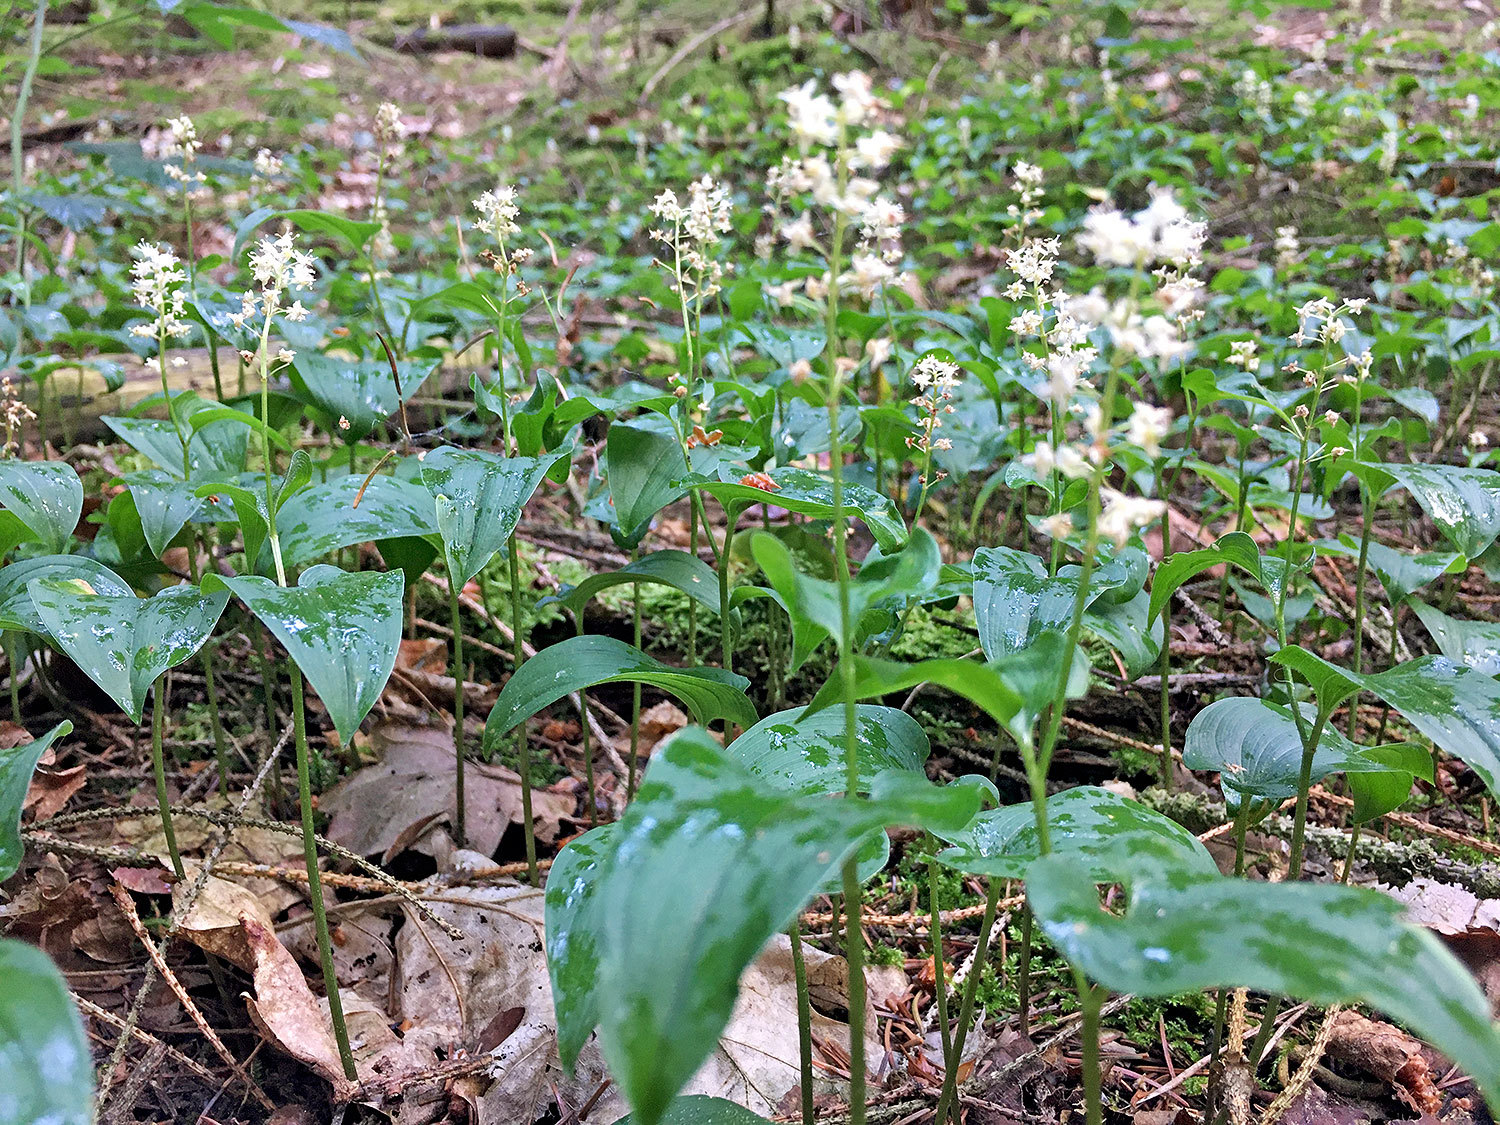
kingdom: Plantae
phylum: Tracheophyta
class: Liliopsida
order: Asparagales
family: Asparagaceae
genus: Maianthemum
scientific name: Maianthemum bifolium
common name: May lily
